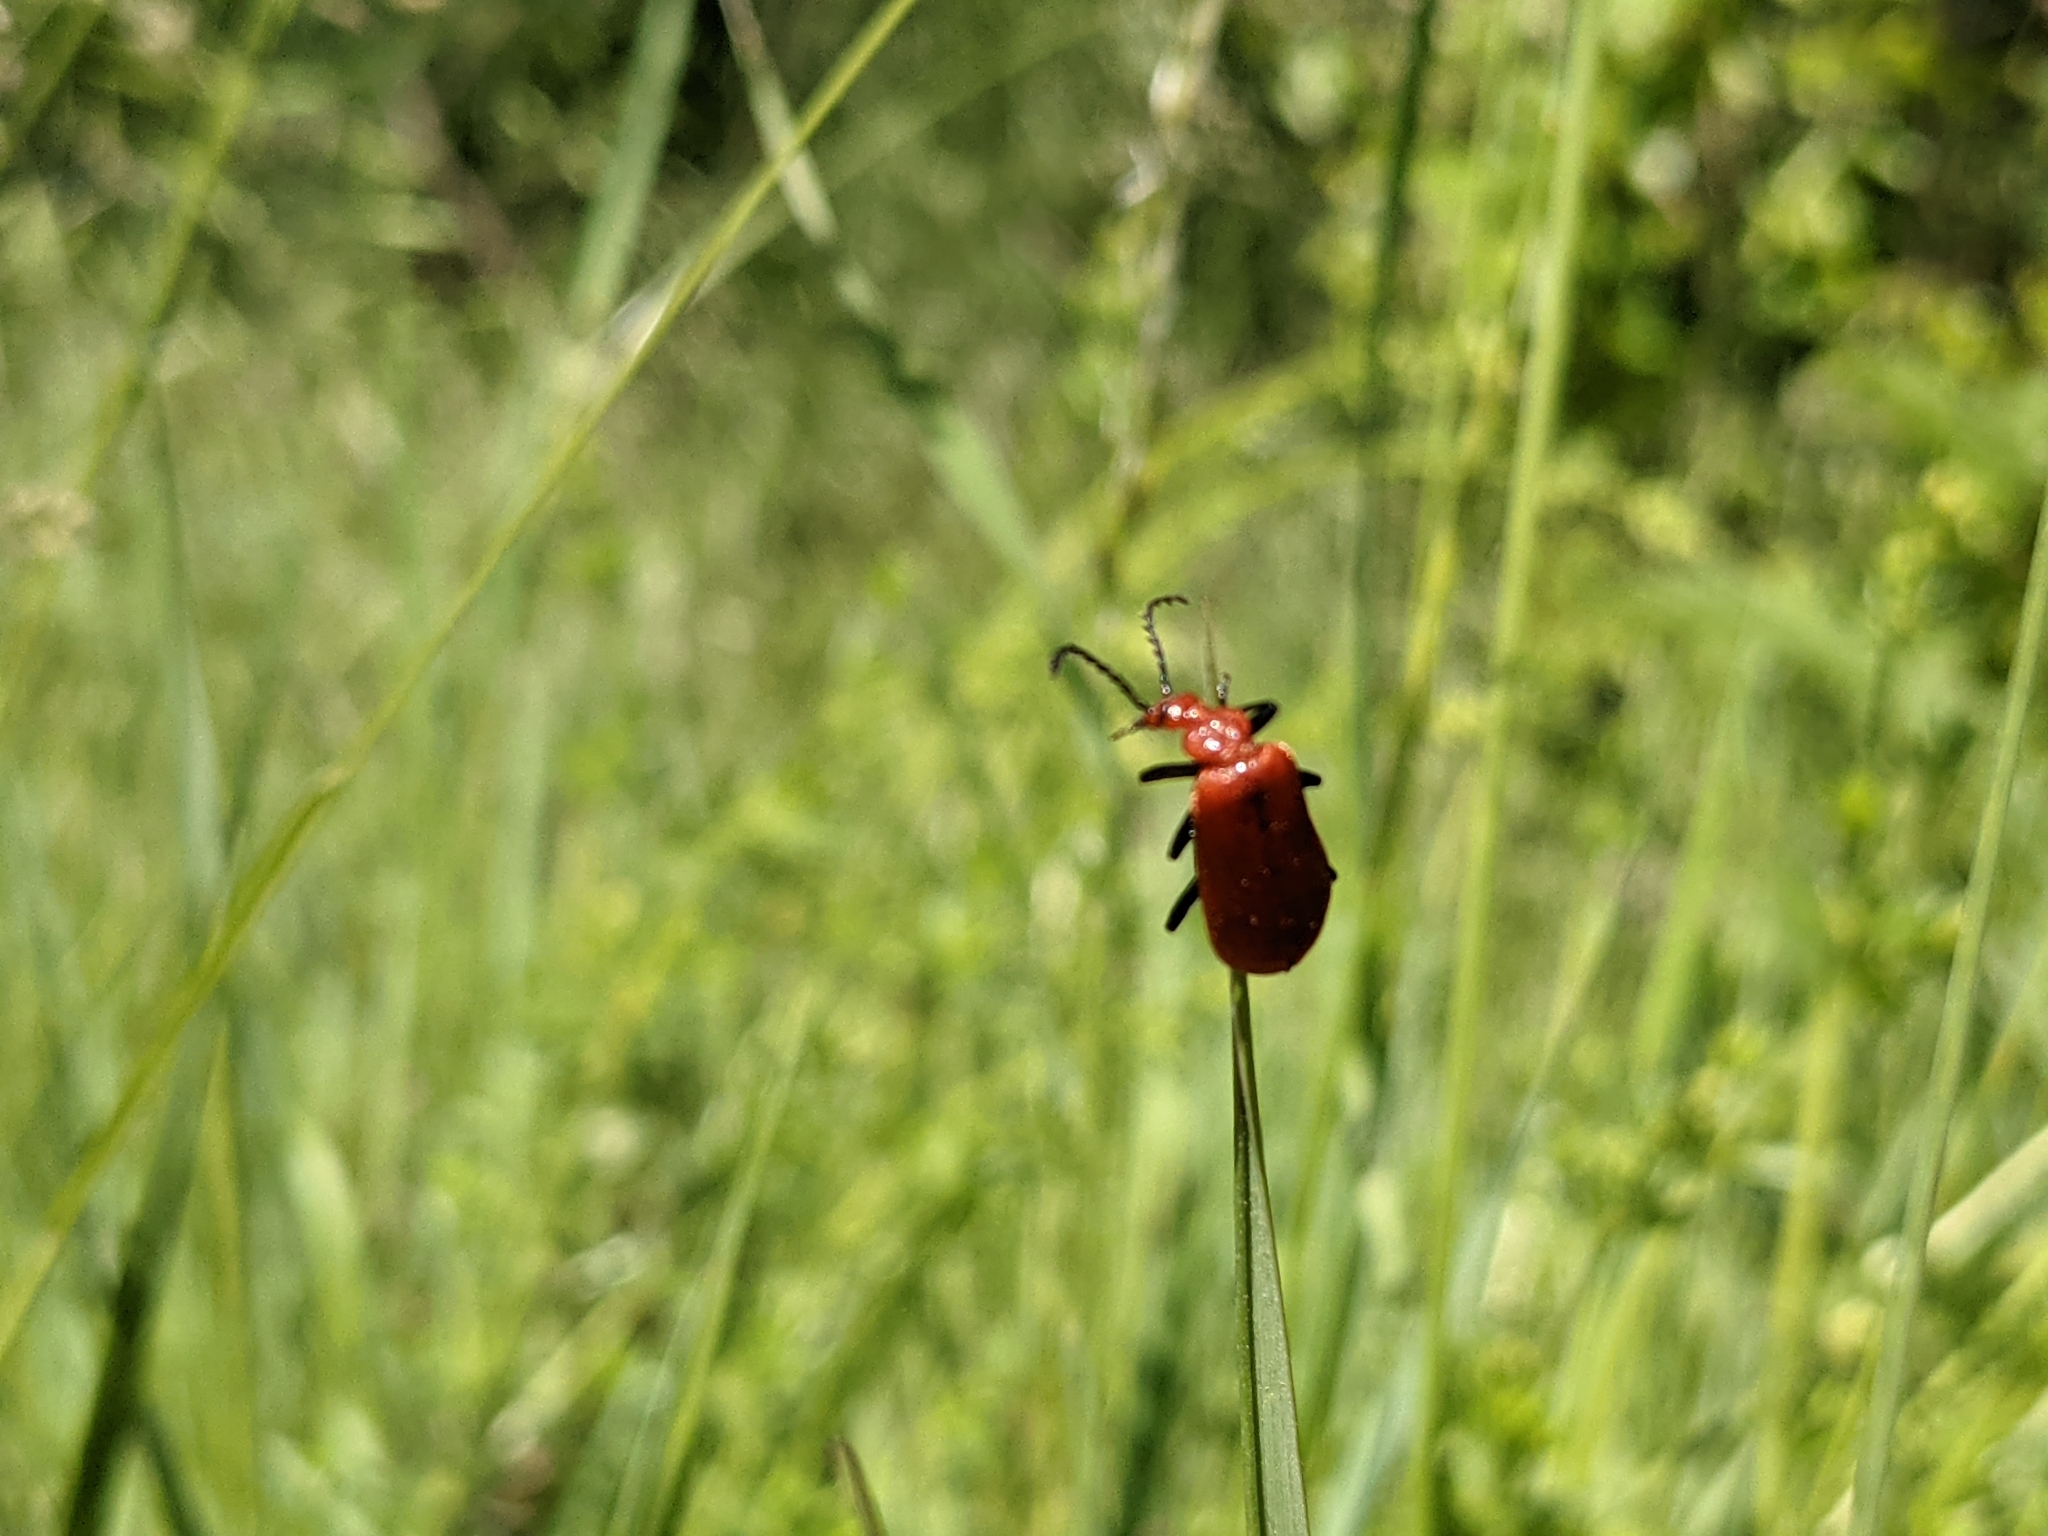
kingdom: Animalia
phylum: Arthropoda
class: Insecta
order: Coleoptera
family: Pyrochroidae
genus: Pyrochroa
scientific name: Pyrochroa serraticornis
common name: Red-headed cardinal beetle
